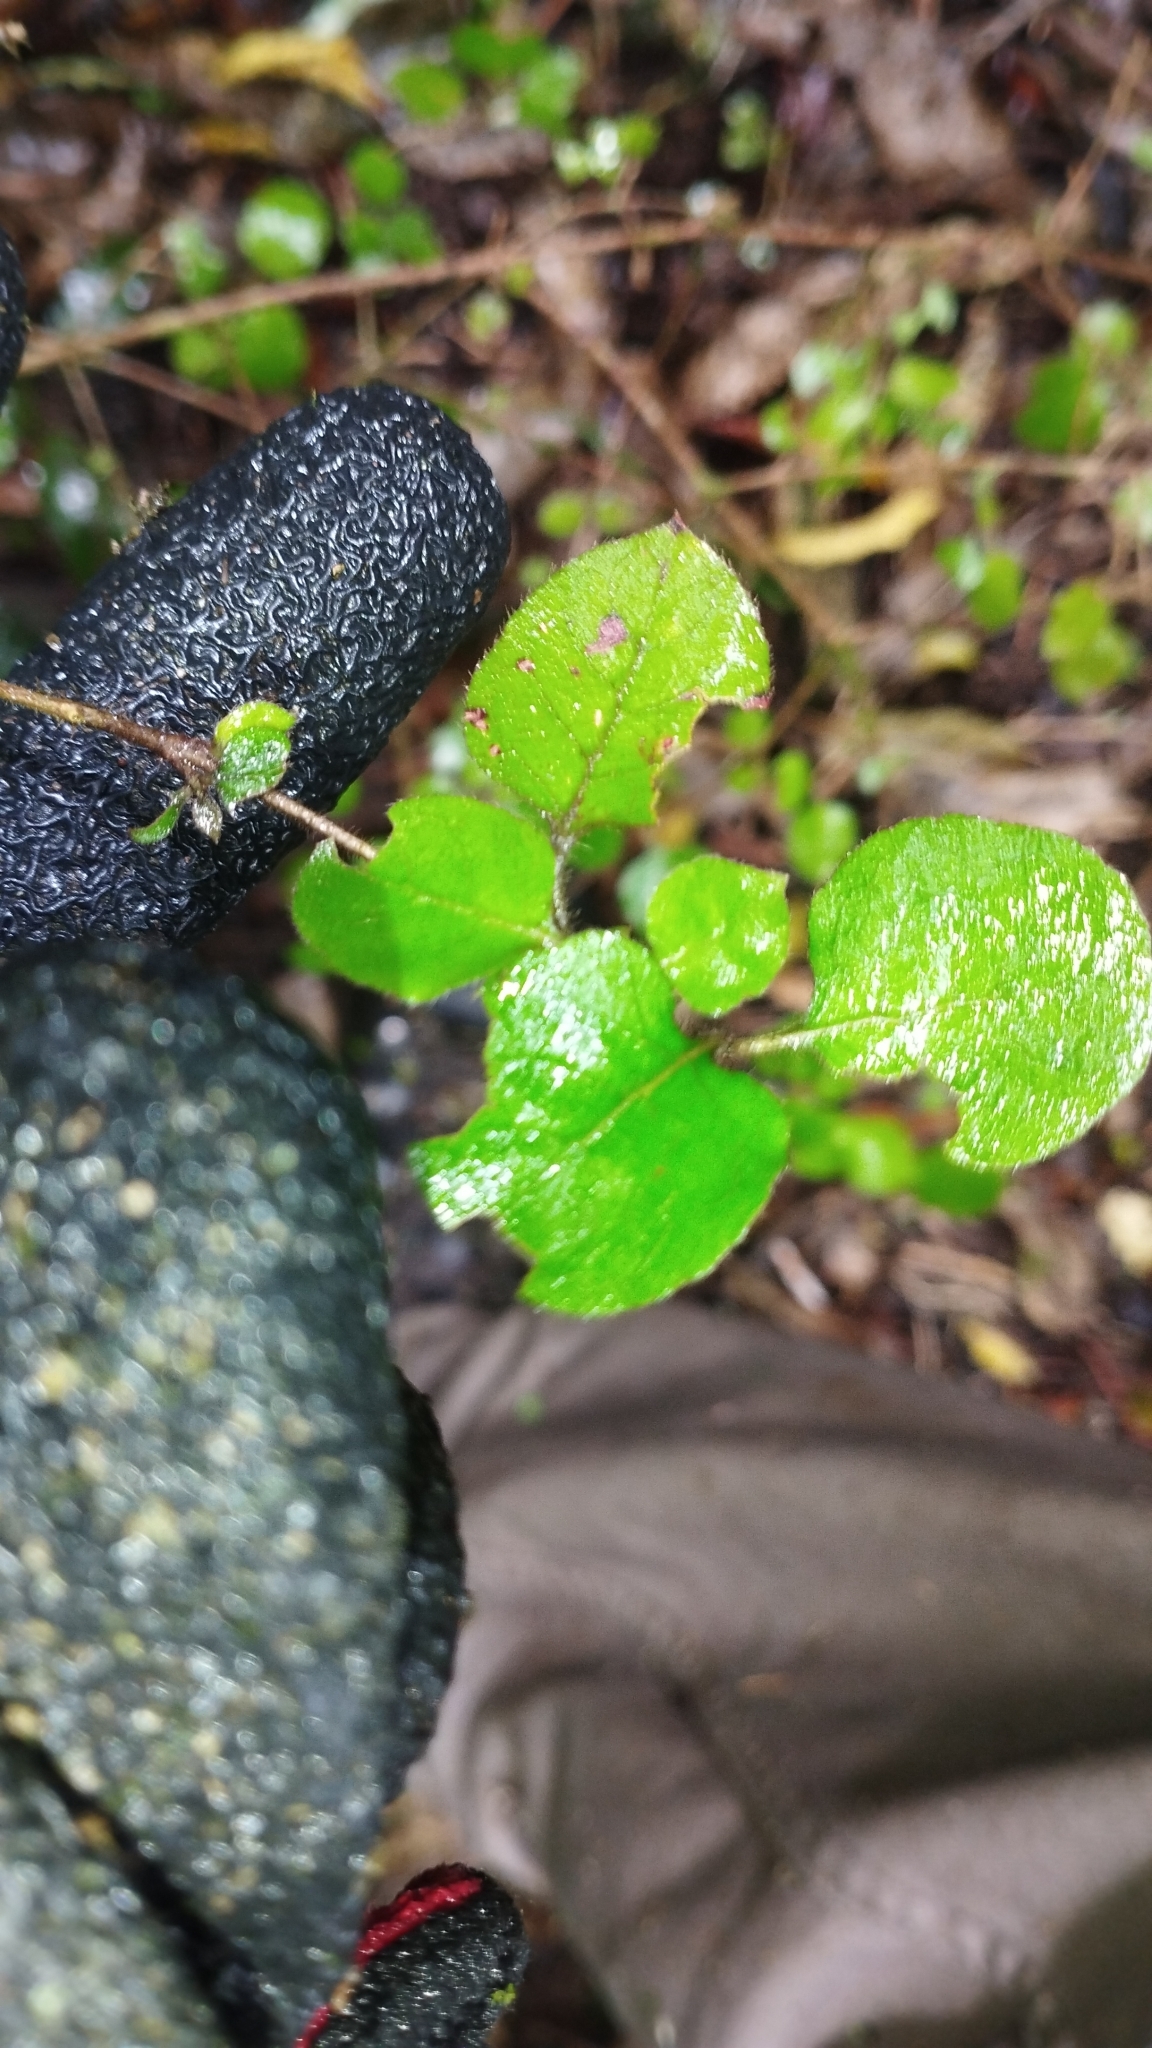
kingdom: Plantae
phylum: Tracheophyta
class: Magnoliopsida
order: Gentianales
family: Rubiaceae
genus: Coprosma
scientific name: Coprosma rotundifolia
